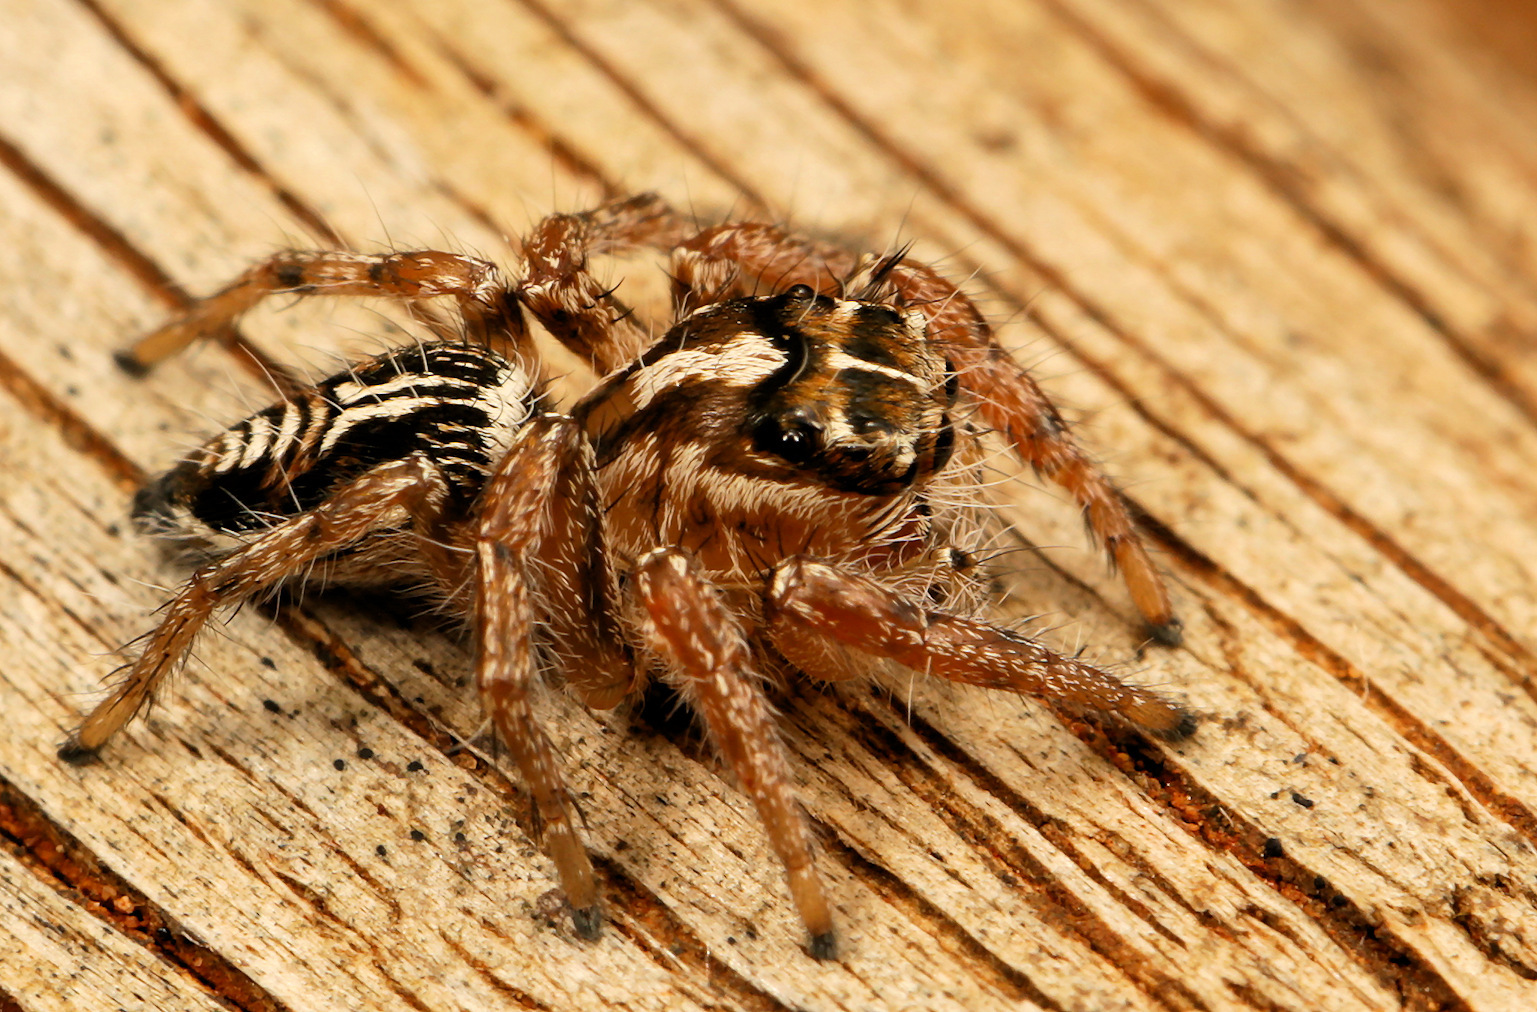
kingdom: Animalia
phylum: Arthropoda
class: Arachnida
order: Araneae
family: Salticidae
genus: Hyllus
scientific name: Hyllus argyrotoxus
